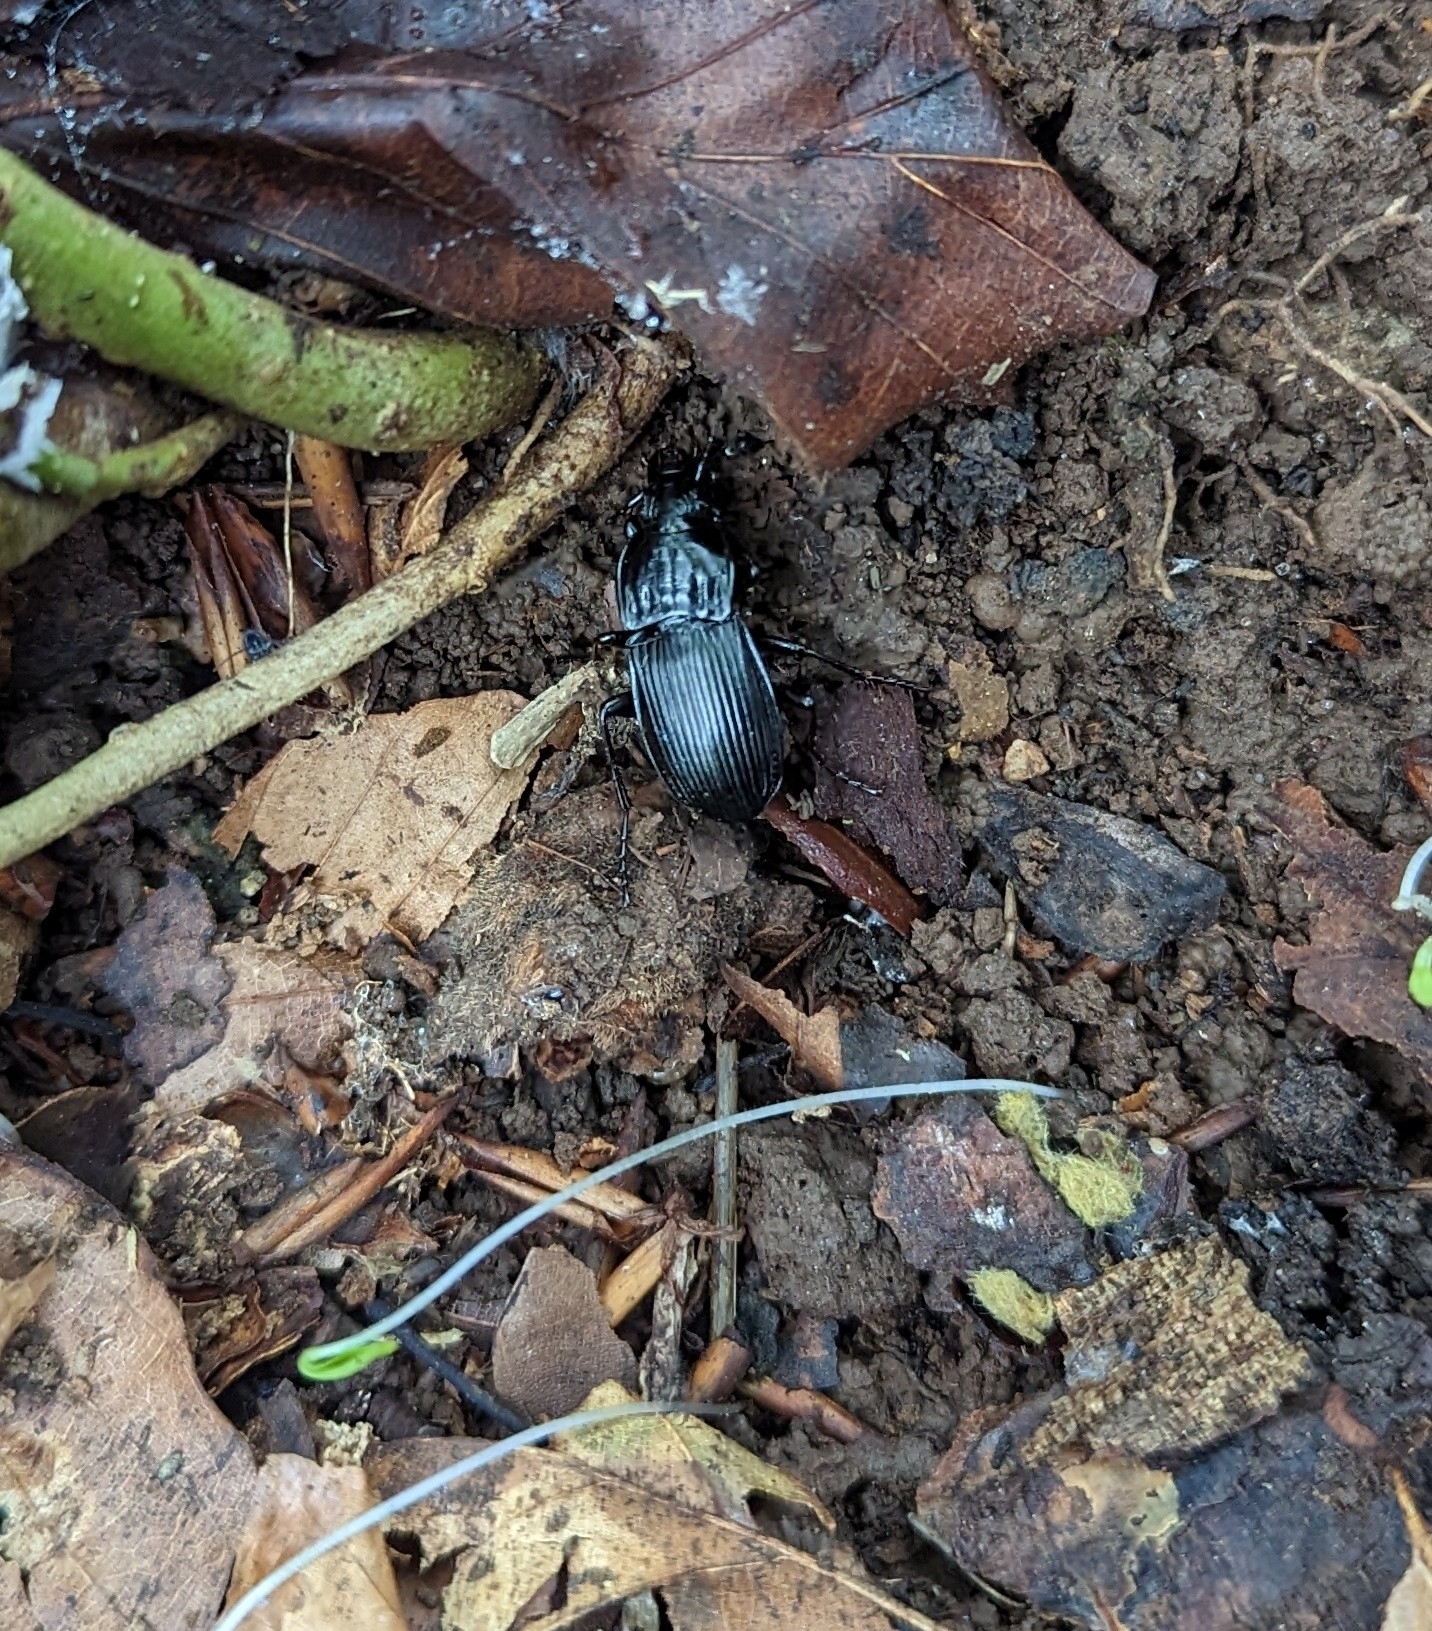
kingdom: Animalia
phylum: Arthropoda
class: Insecta
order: Coleoptera
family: Carabidae
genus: Abax
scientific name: Abax parallelepipedus
